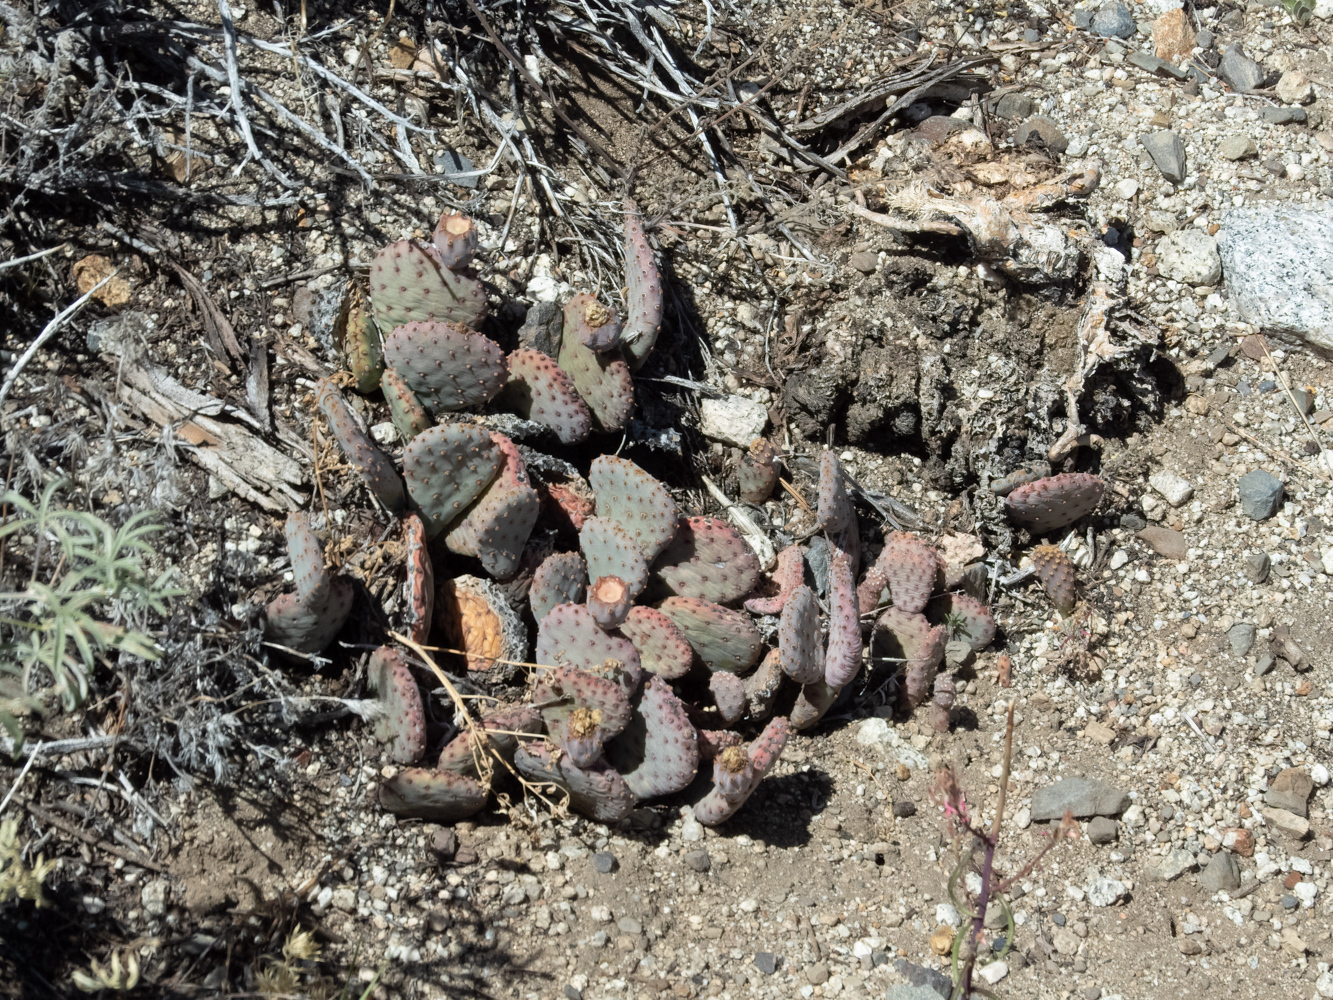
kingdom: Plantae
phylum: Tracheophyta
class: Magnoliopsida
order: Caryophyllales
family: Cactaceae
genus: Opuntia
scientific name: Opuntia basilaris
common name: Beavertail prickly-pear
